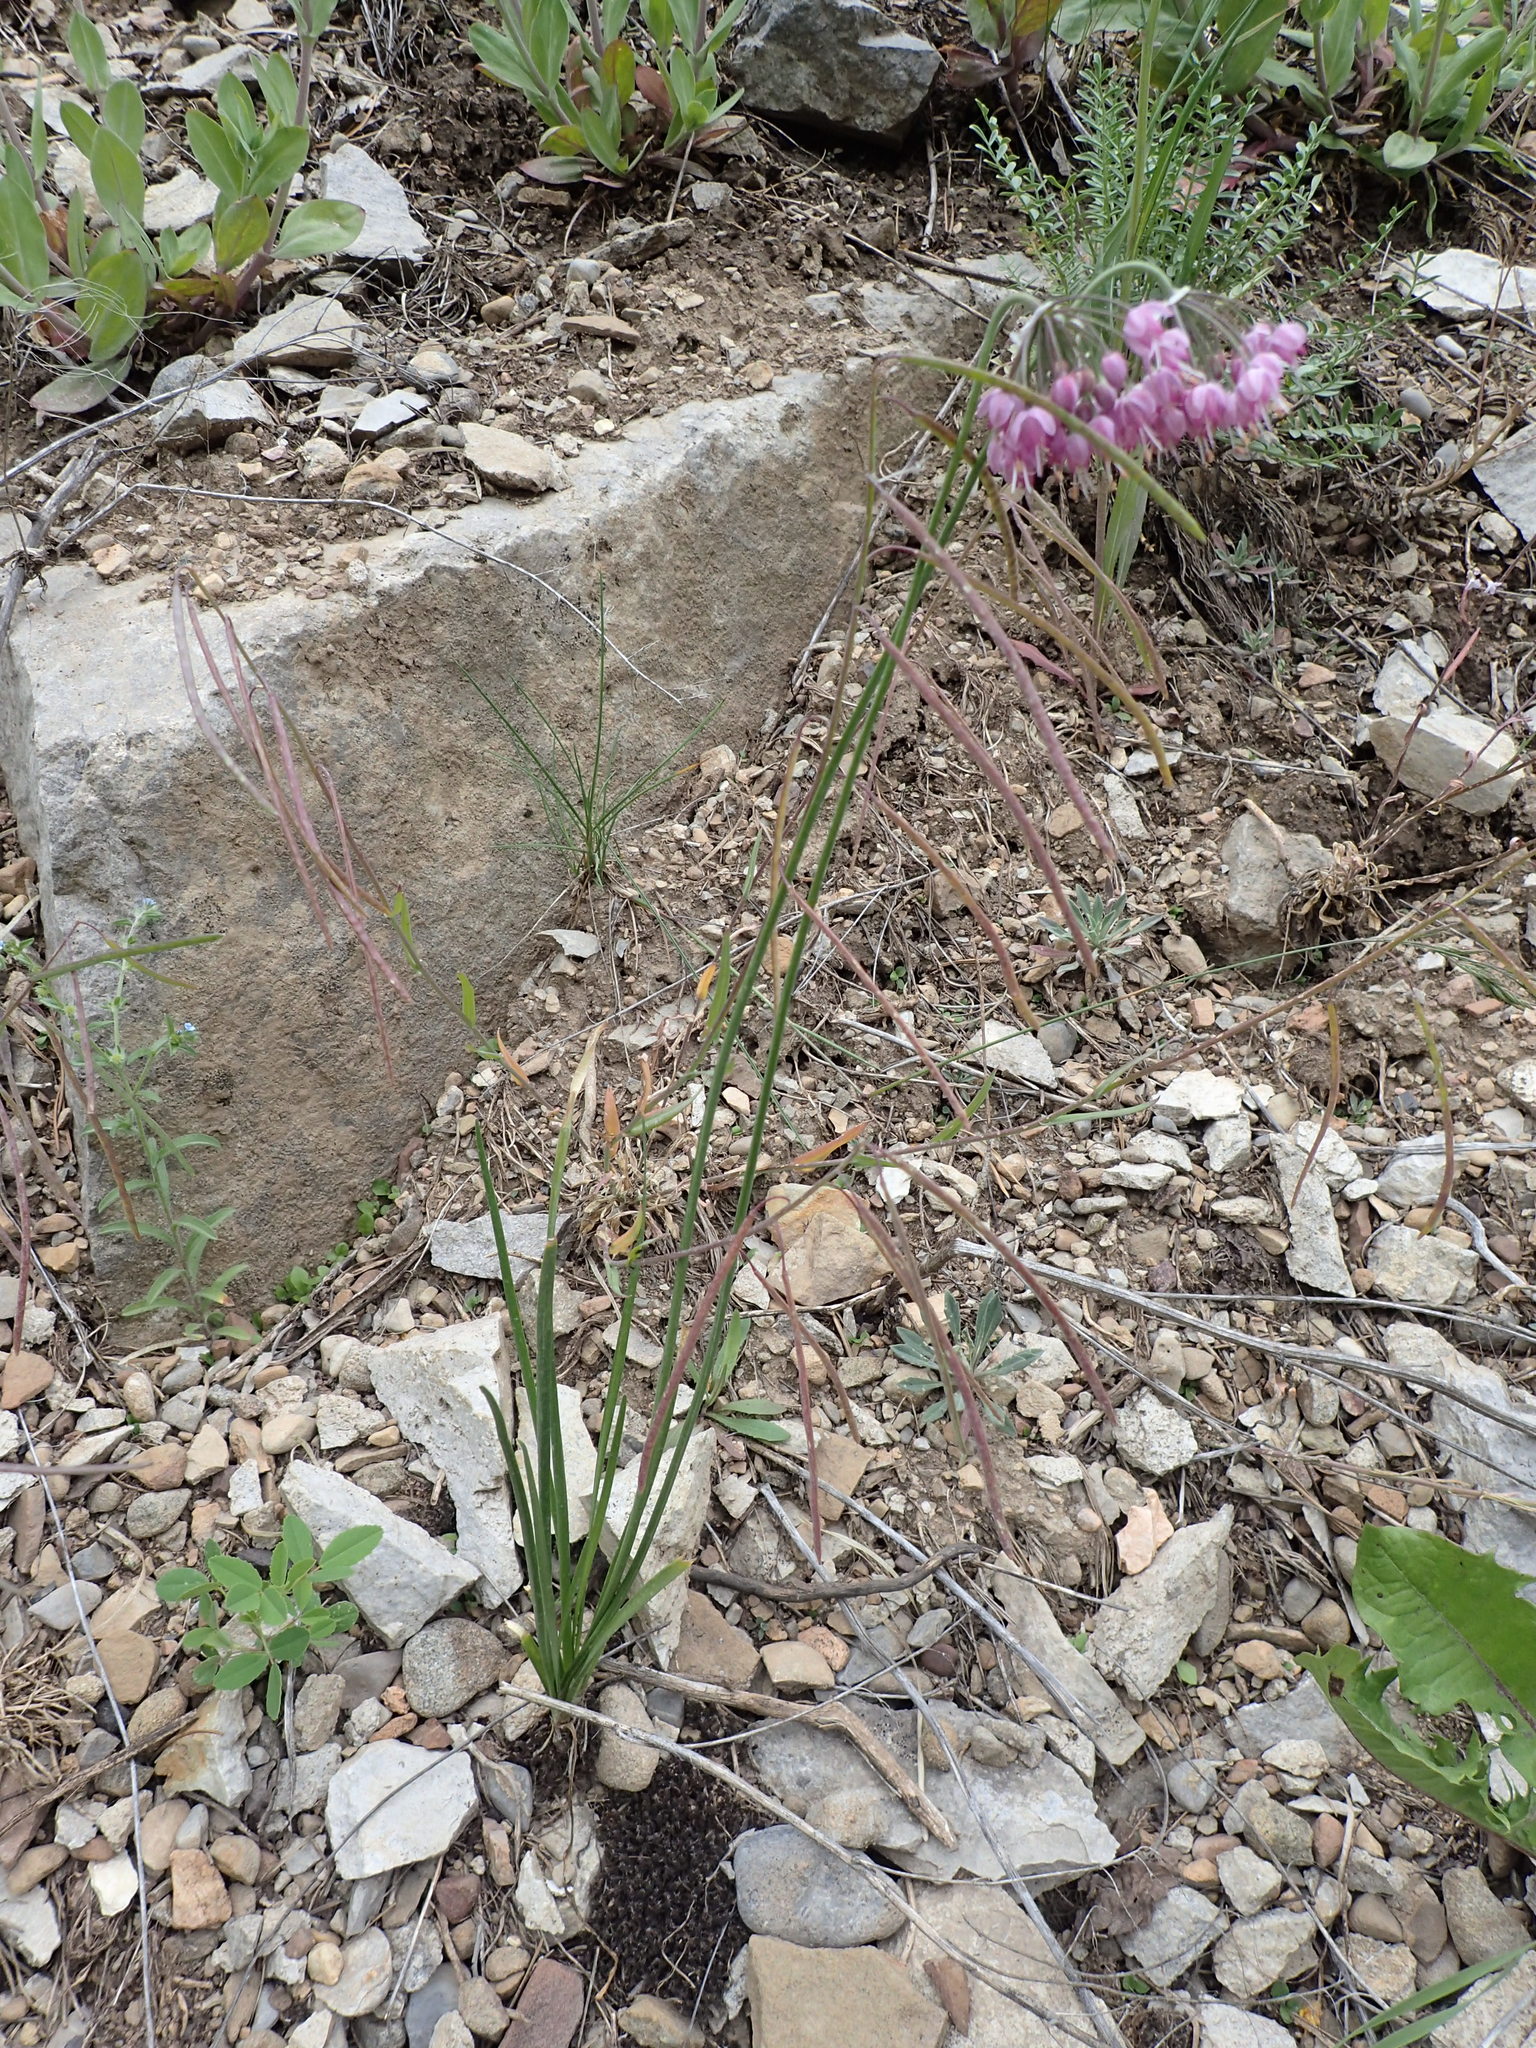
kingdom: Plantae
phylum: Tracheophyta
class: Liliopsida
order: Asparagales
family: Amaryllidaceae
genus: Allium
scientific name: Allium cernuum
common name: Nodding onion
